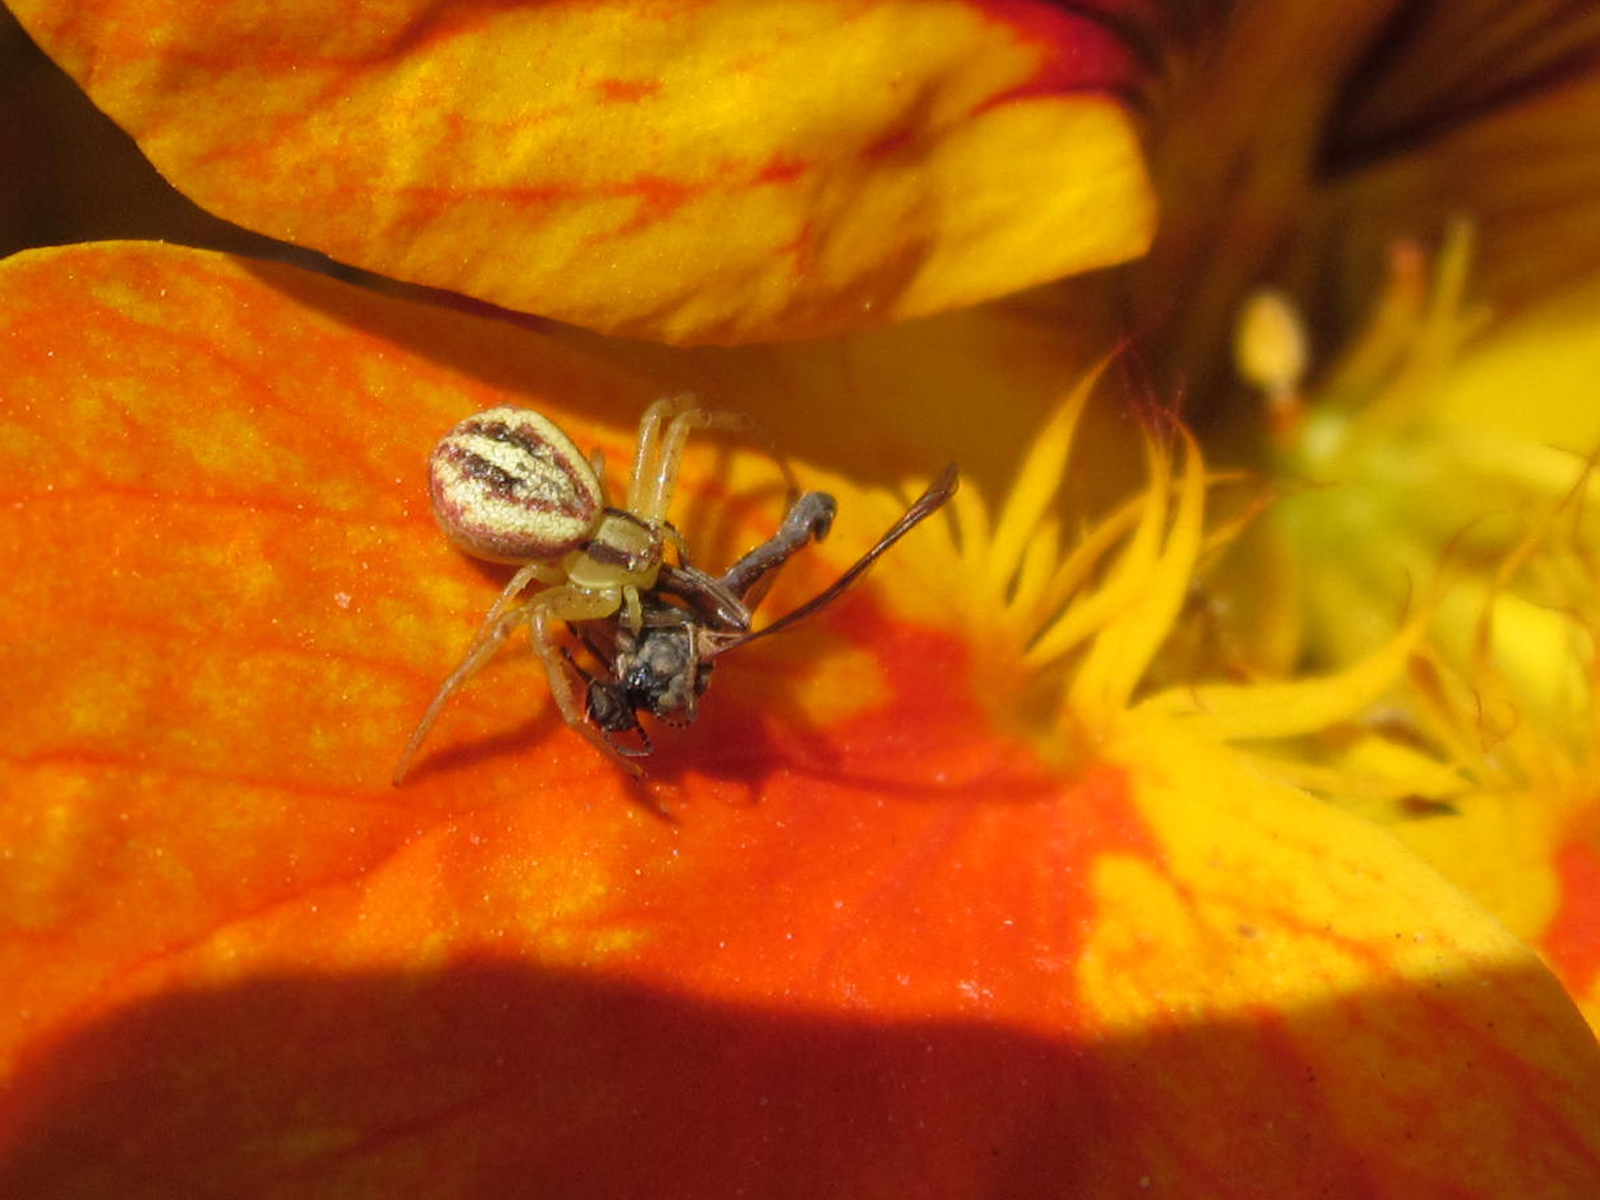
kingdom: Animalia
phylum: Arthropoda
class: Arachnida
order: Araneae
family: Thomisidae
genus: Misumenops
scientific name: Misumenops temibilis
